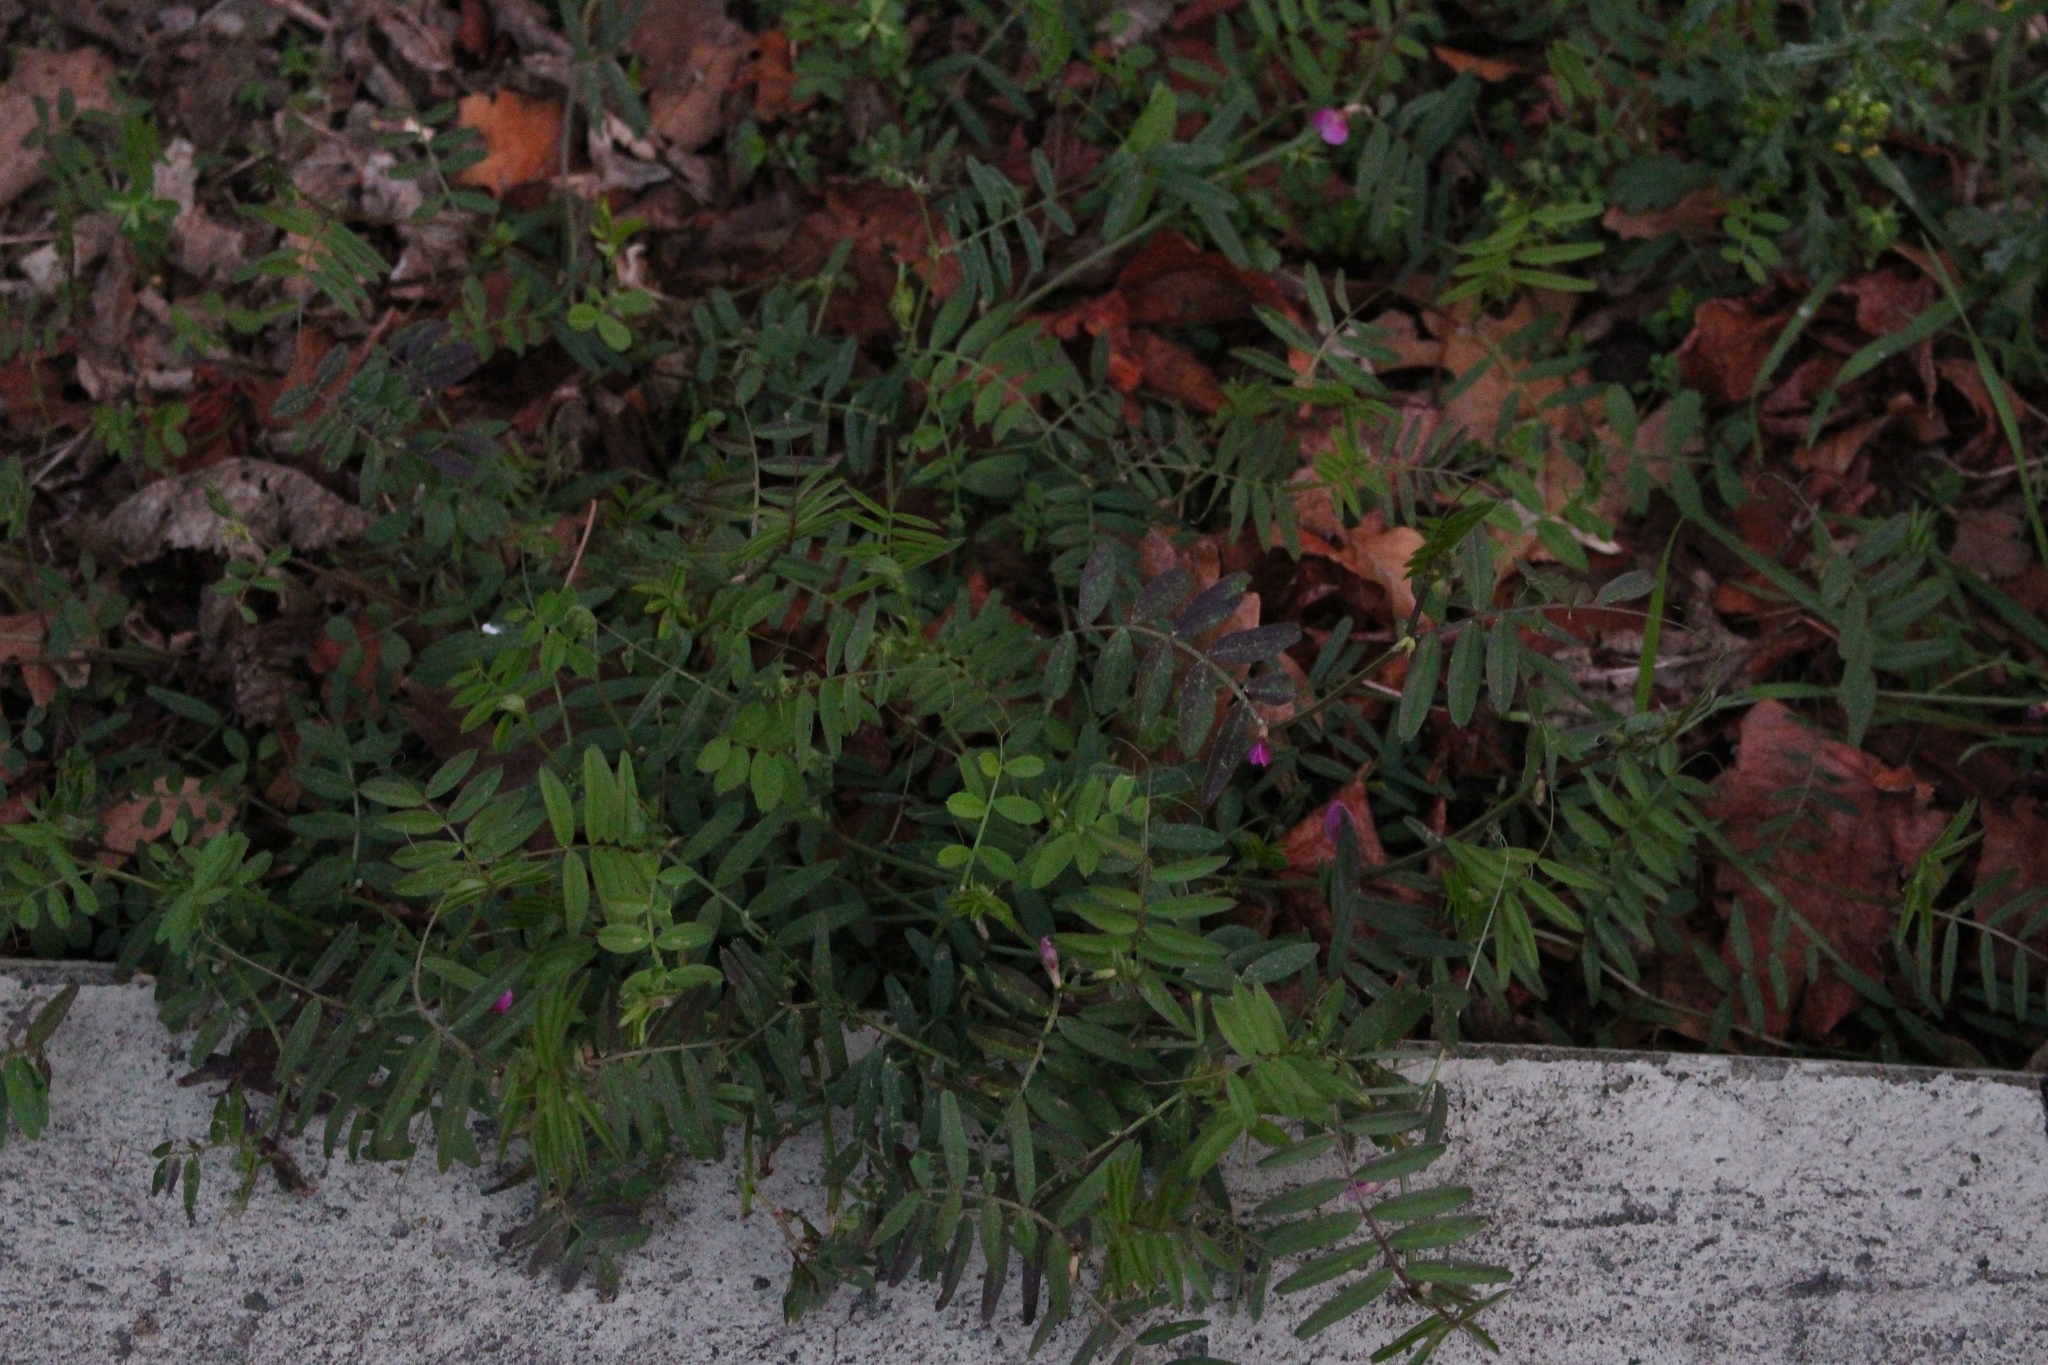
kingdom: Plantae
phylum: Tracheophyta
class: Magnoliopsida
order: Fabales
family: Fabaceae
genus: Vicia
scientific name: Vicia sativa
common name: Garden vetch
